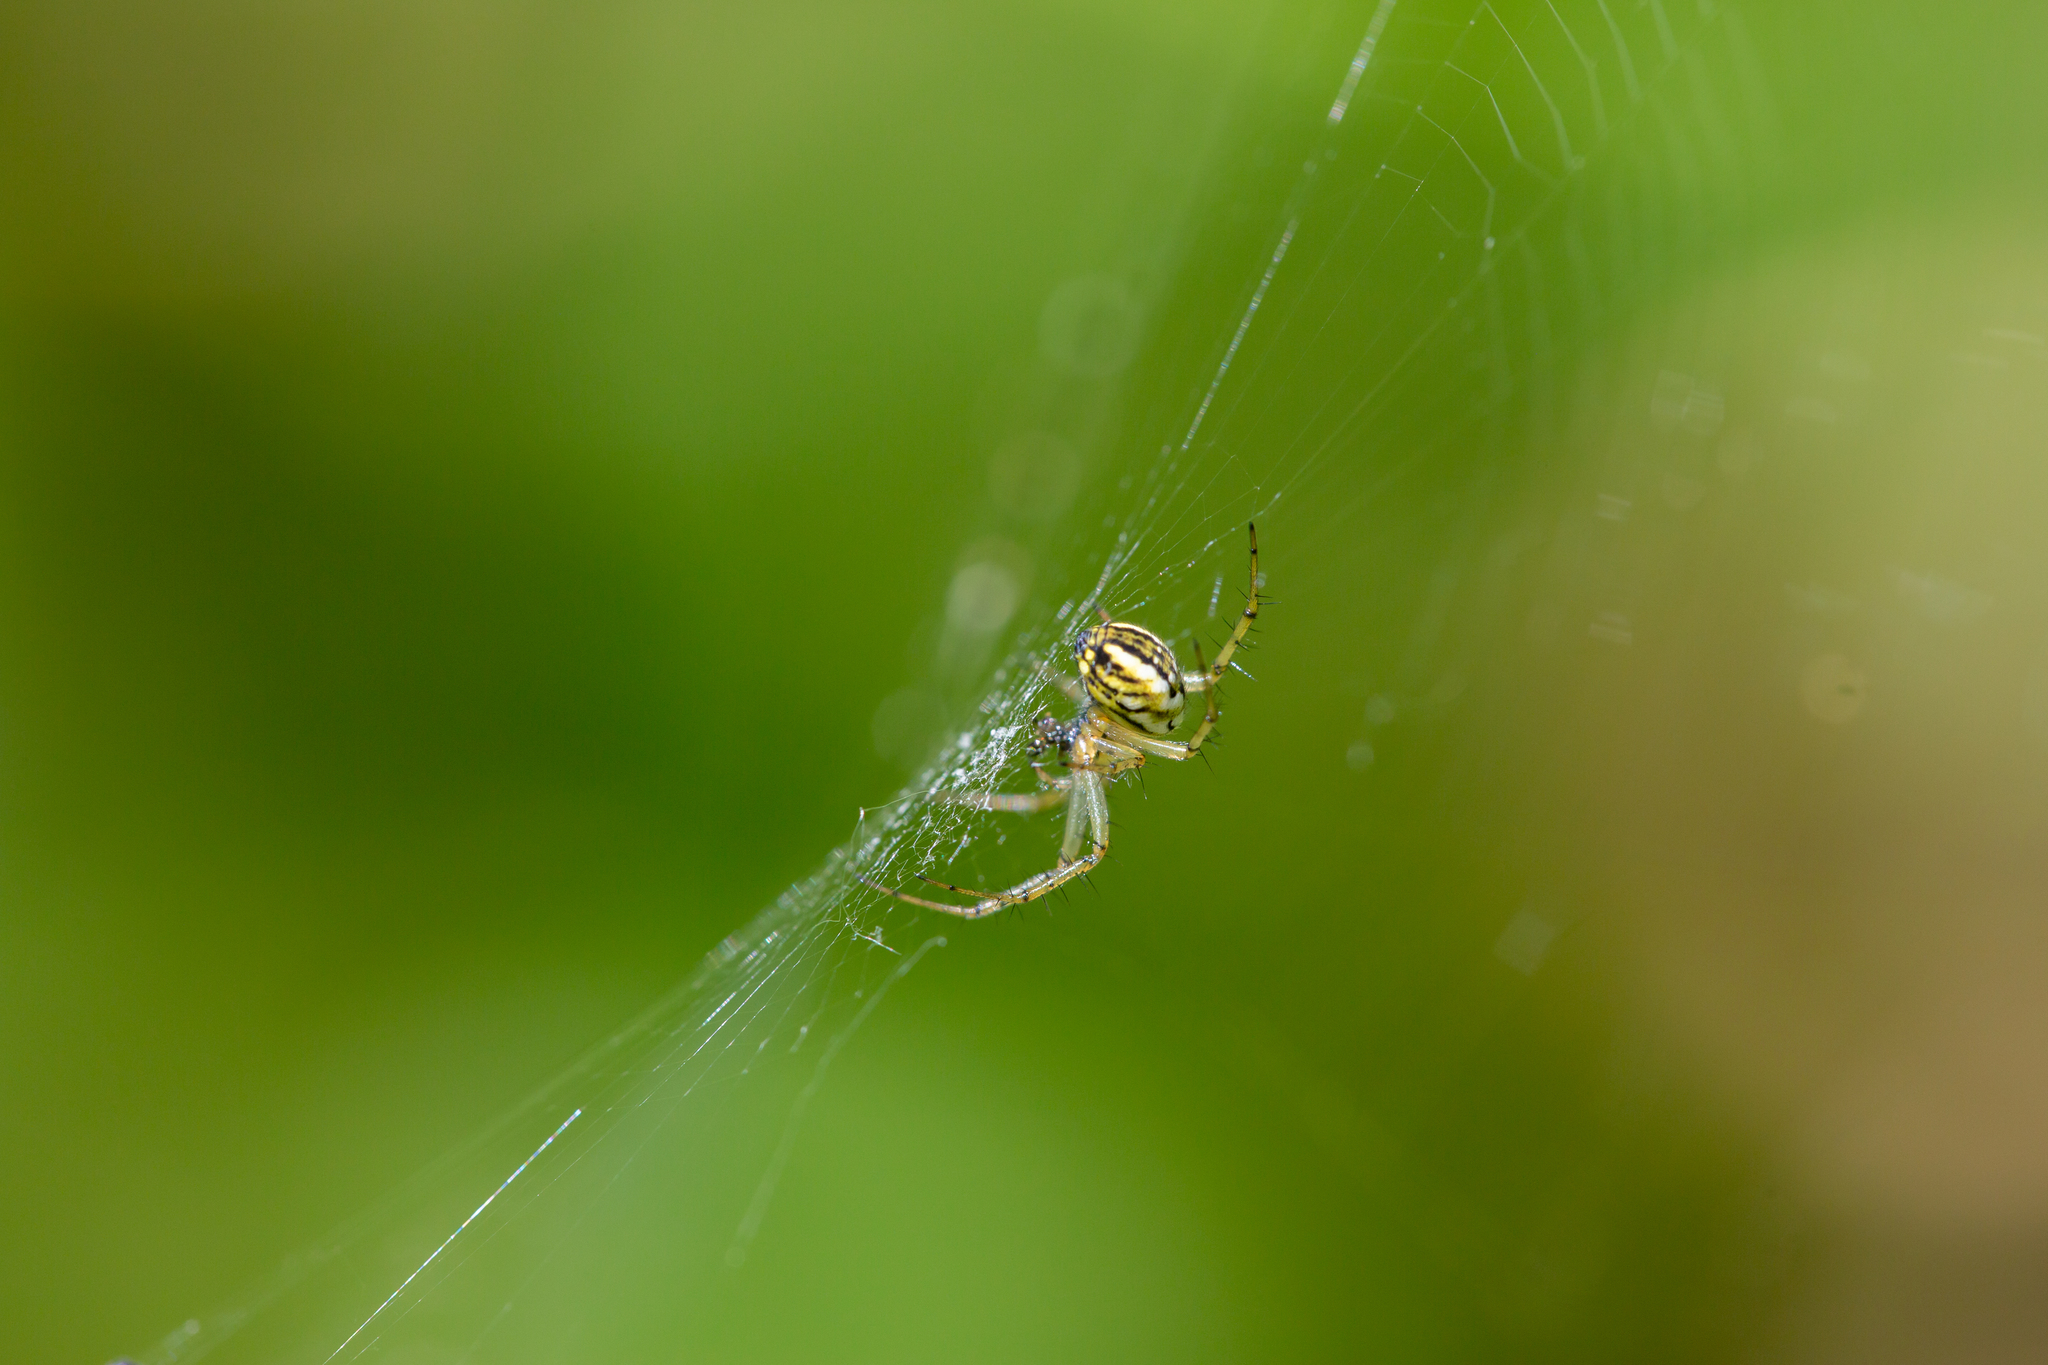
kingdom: Animalia
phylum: Arthropoda
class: Arachnida
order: Araneae
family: Araneidae
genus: Mangora
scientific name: Mangora acalypha
